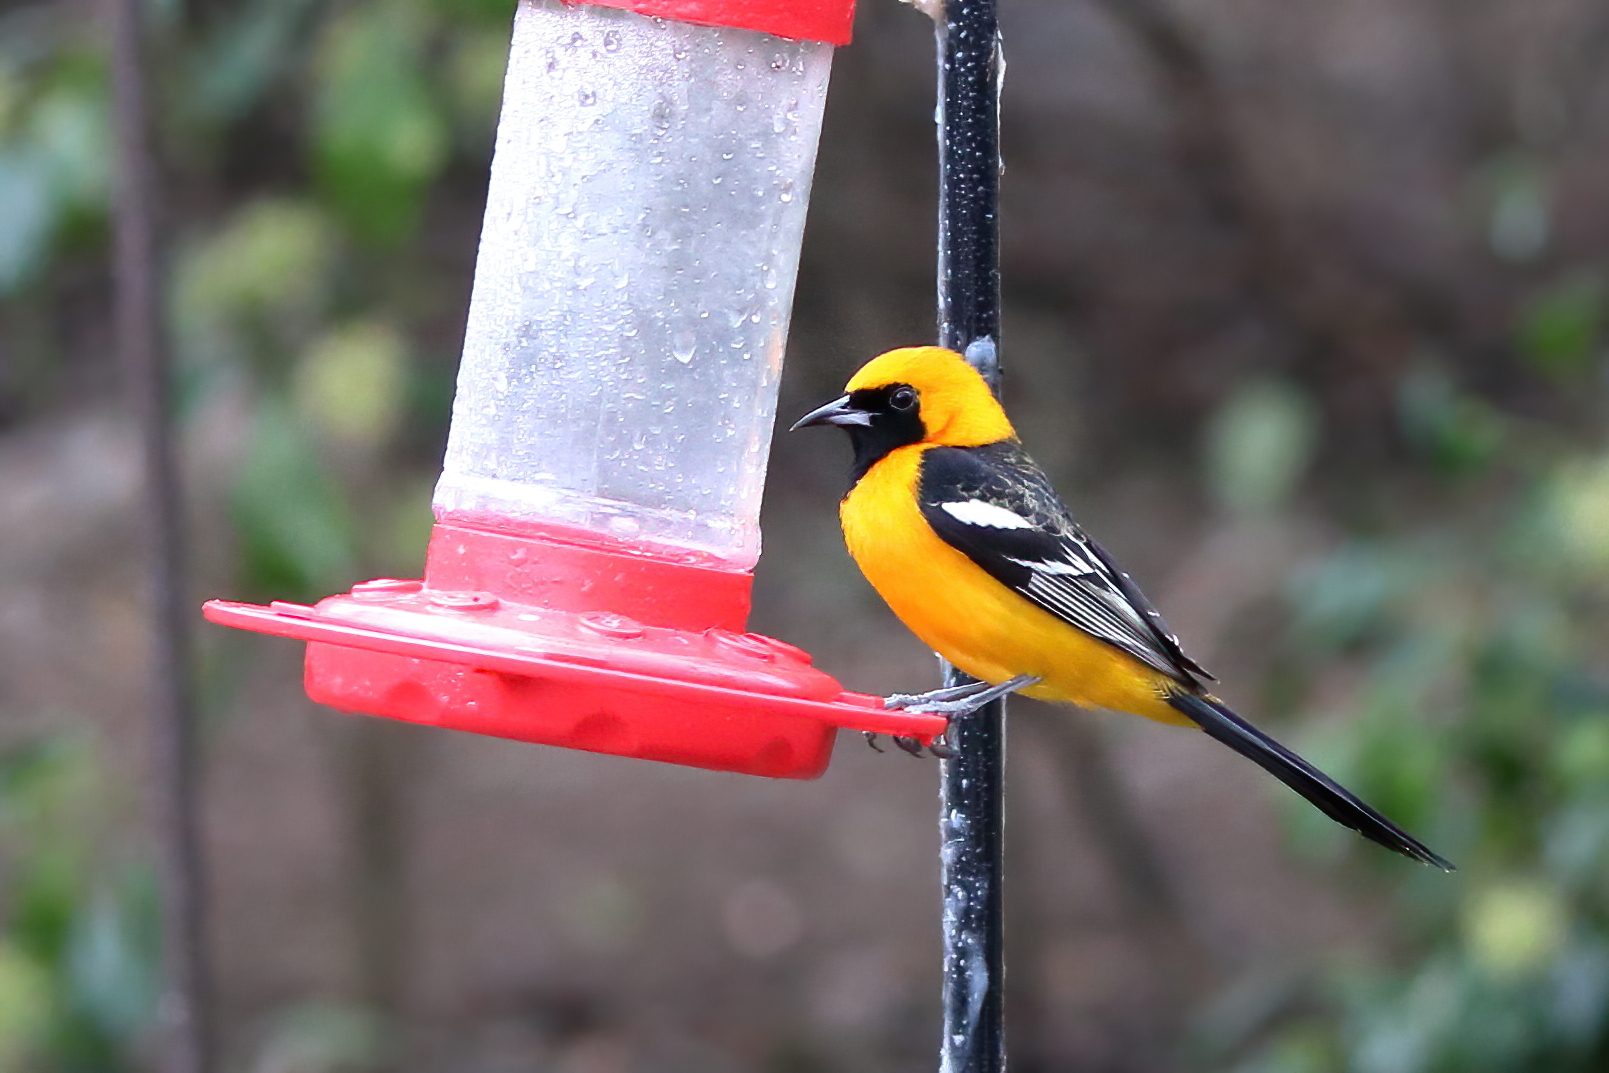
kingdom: Animalia
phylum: Chordata
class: Aves
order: Passeriformes
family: Icteridae
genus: Icterus
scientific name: Icterus cucullatus
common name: Hooded oriole
